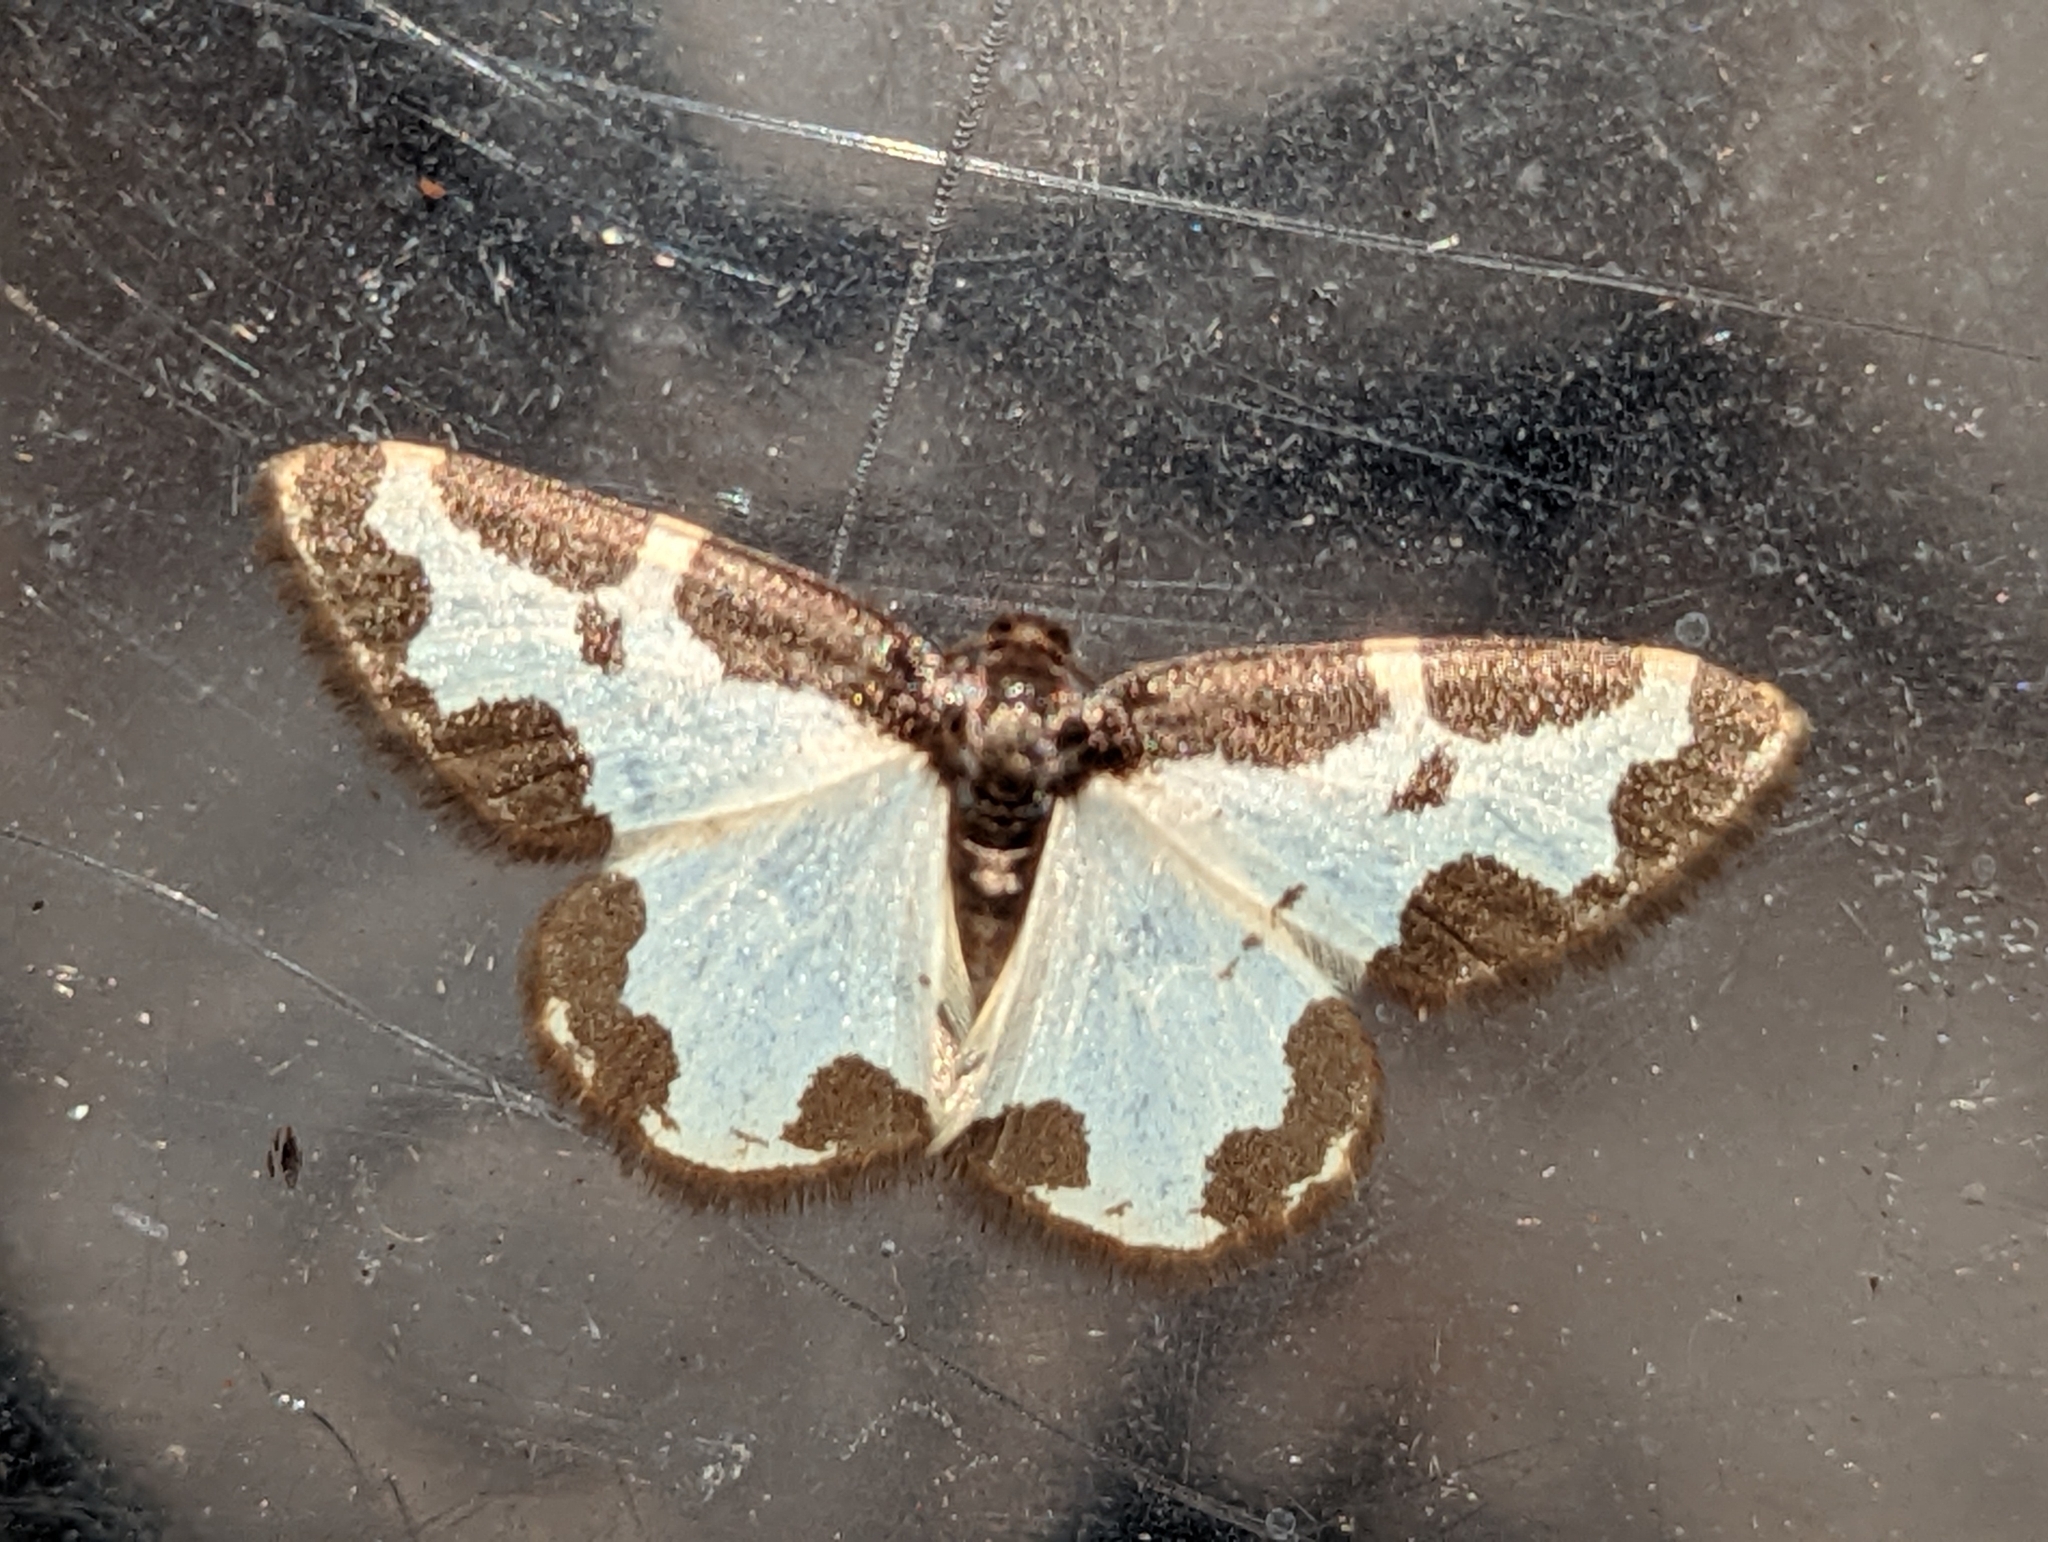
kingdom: Animalia
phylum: Arthropoda
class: Insecta
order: Lepidoptera
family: Geometridae
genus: Lomaspilis
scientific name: Lomaspilis marginata
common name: Clouded border
